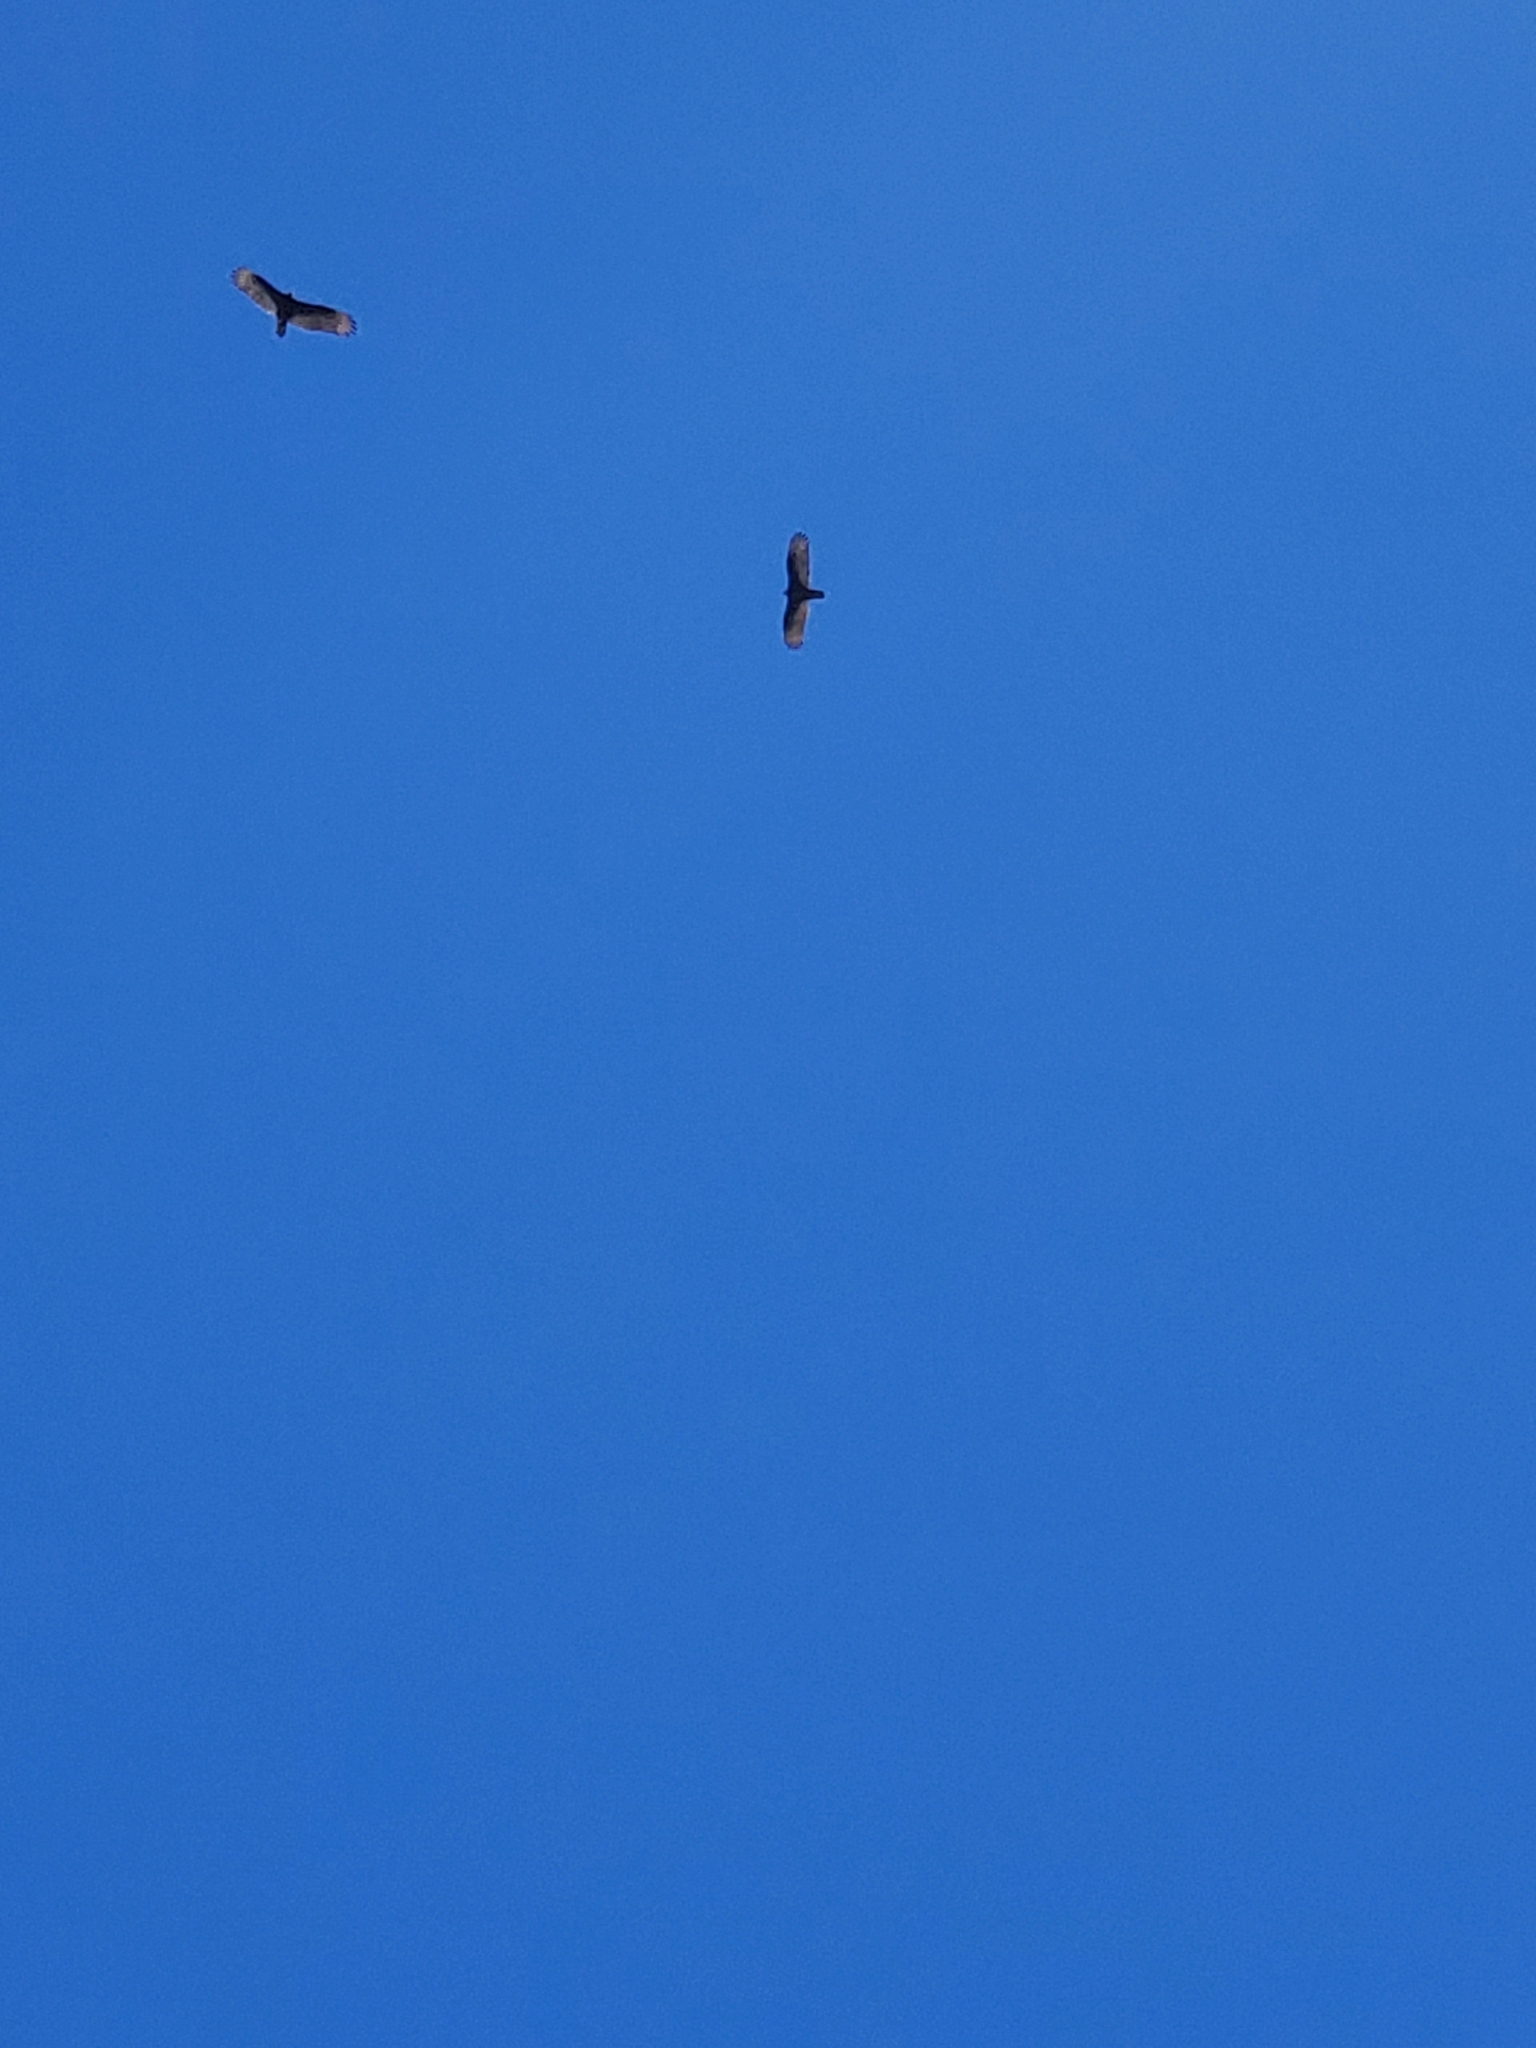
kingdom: Animalia
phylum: Chordata
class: Aves
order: Accipitriformes
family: Cathartidae
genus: Cathartes
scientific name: Cathartes aura
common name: Turkey vulture
